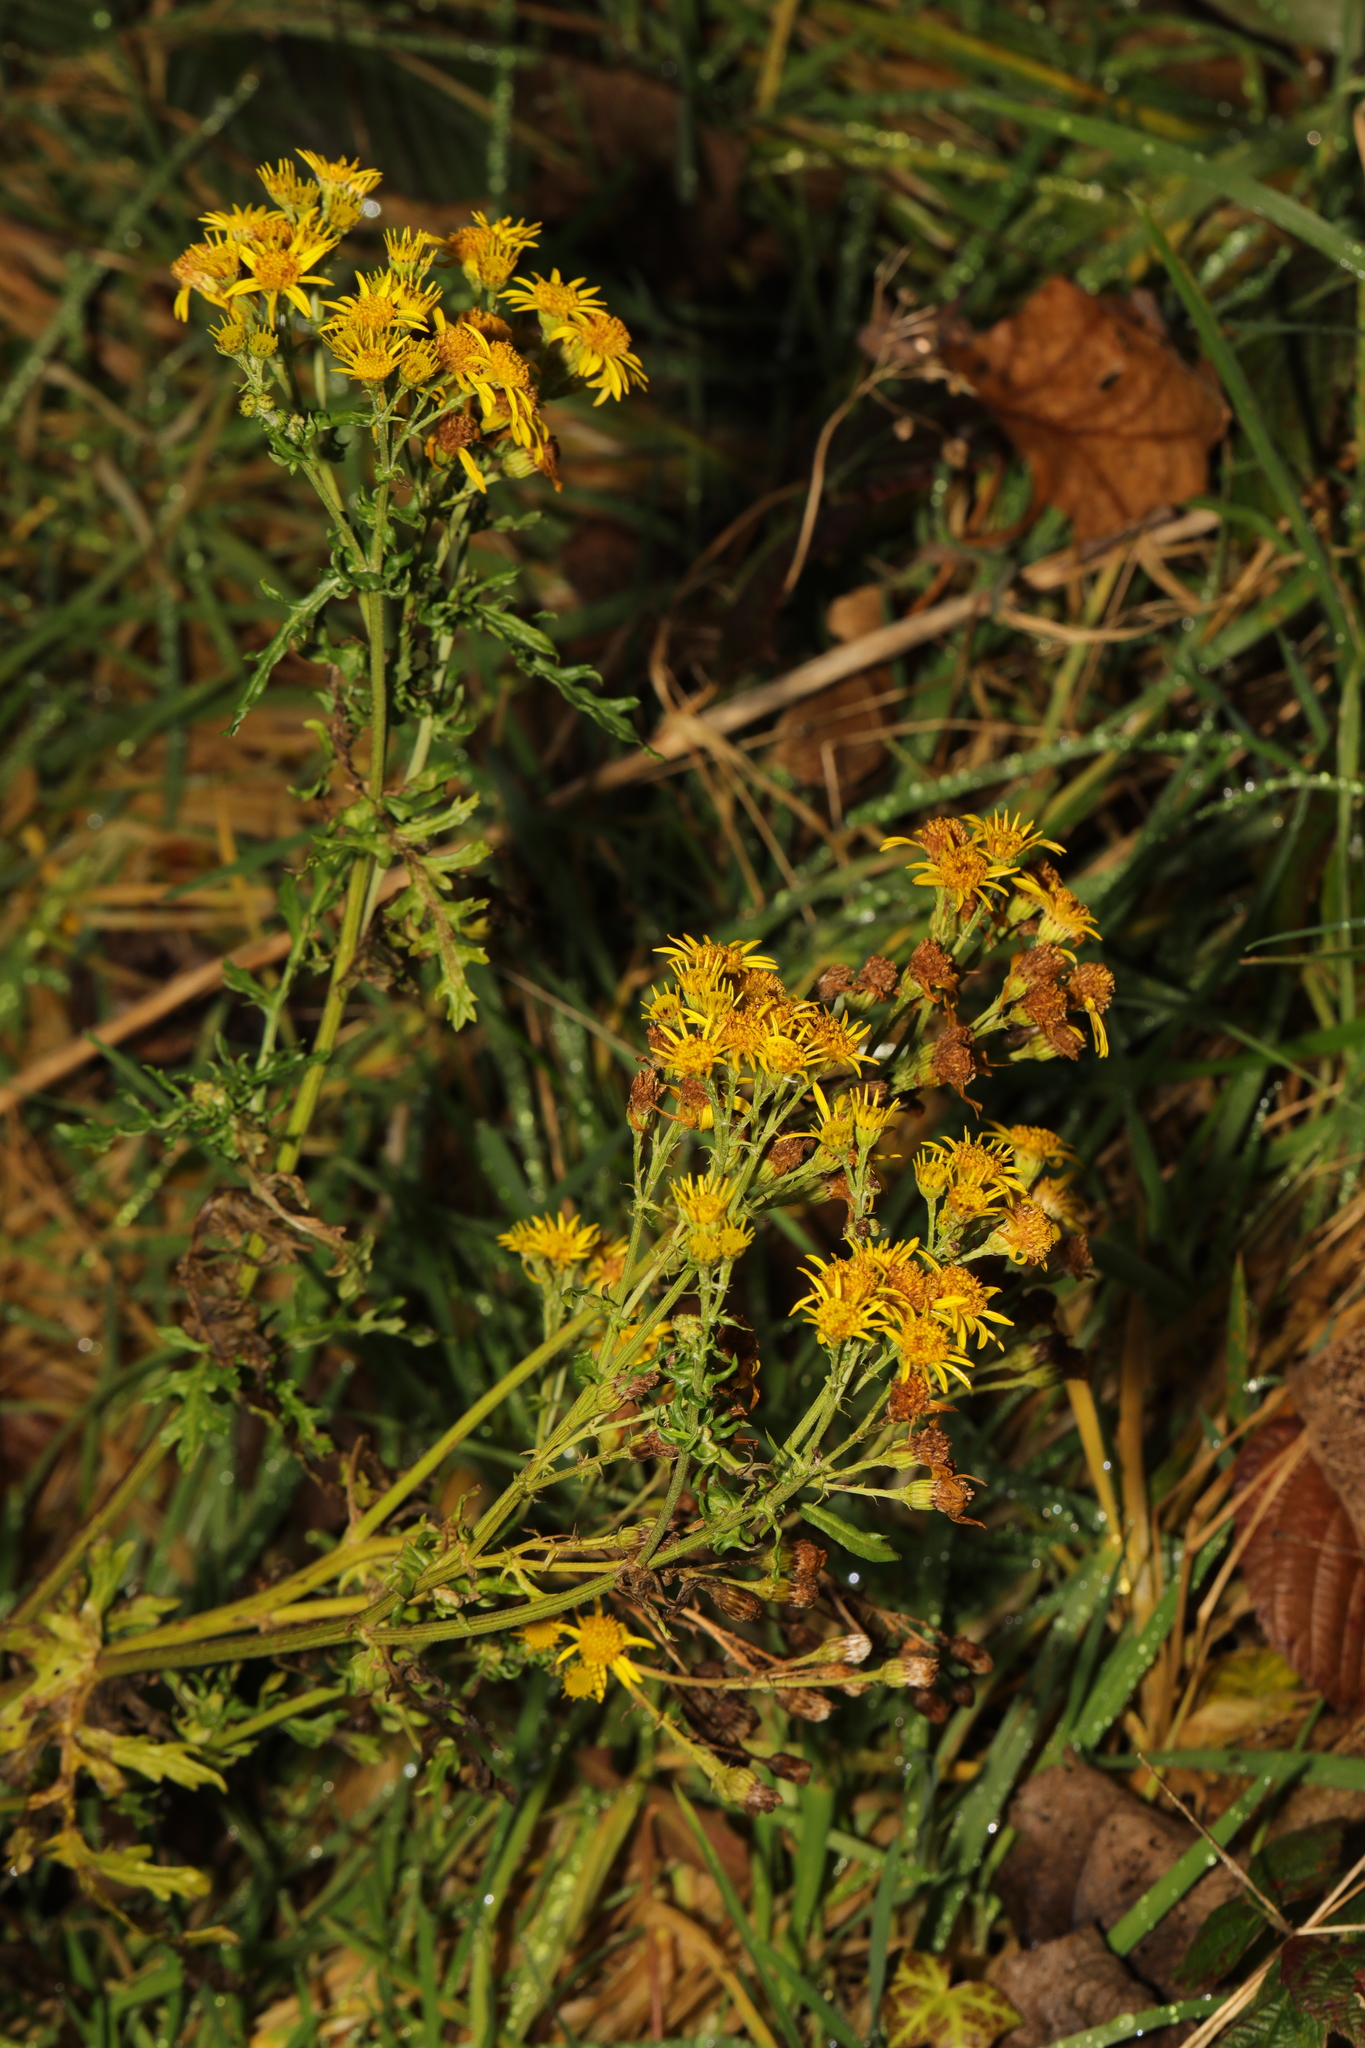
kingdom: Plantae
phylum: Tracheophyta
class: Magnoliopsida
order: Asterales
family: Asteraceae
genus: Jacobaea
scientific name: Jacobaea vulgaris
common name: Stinking willie
